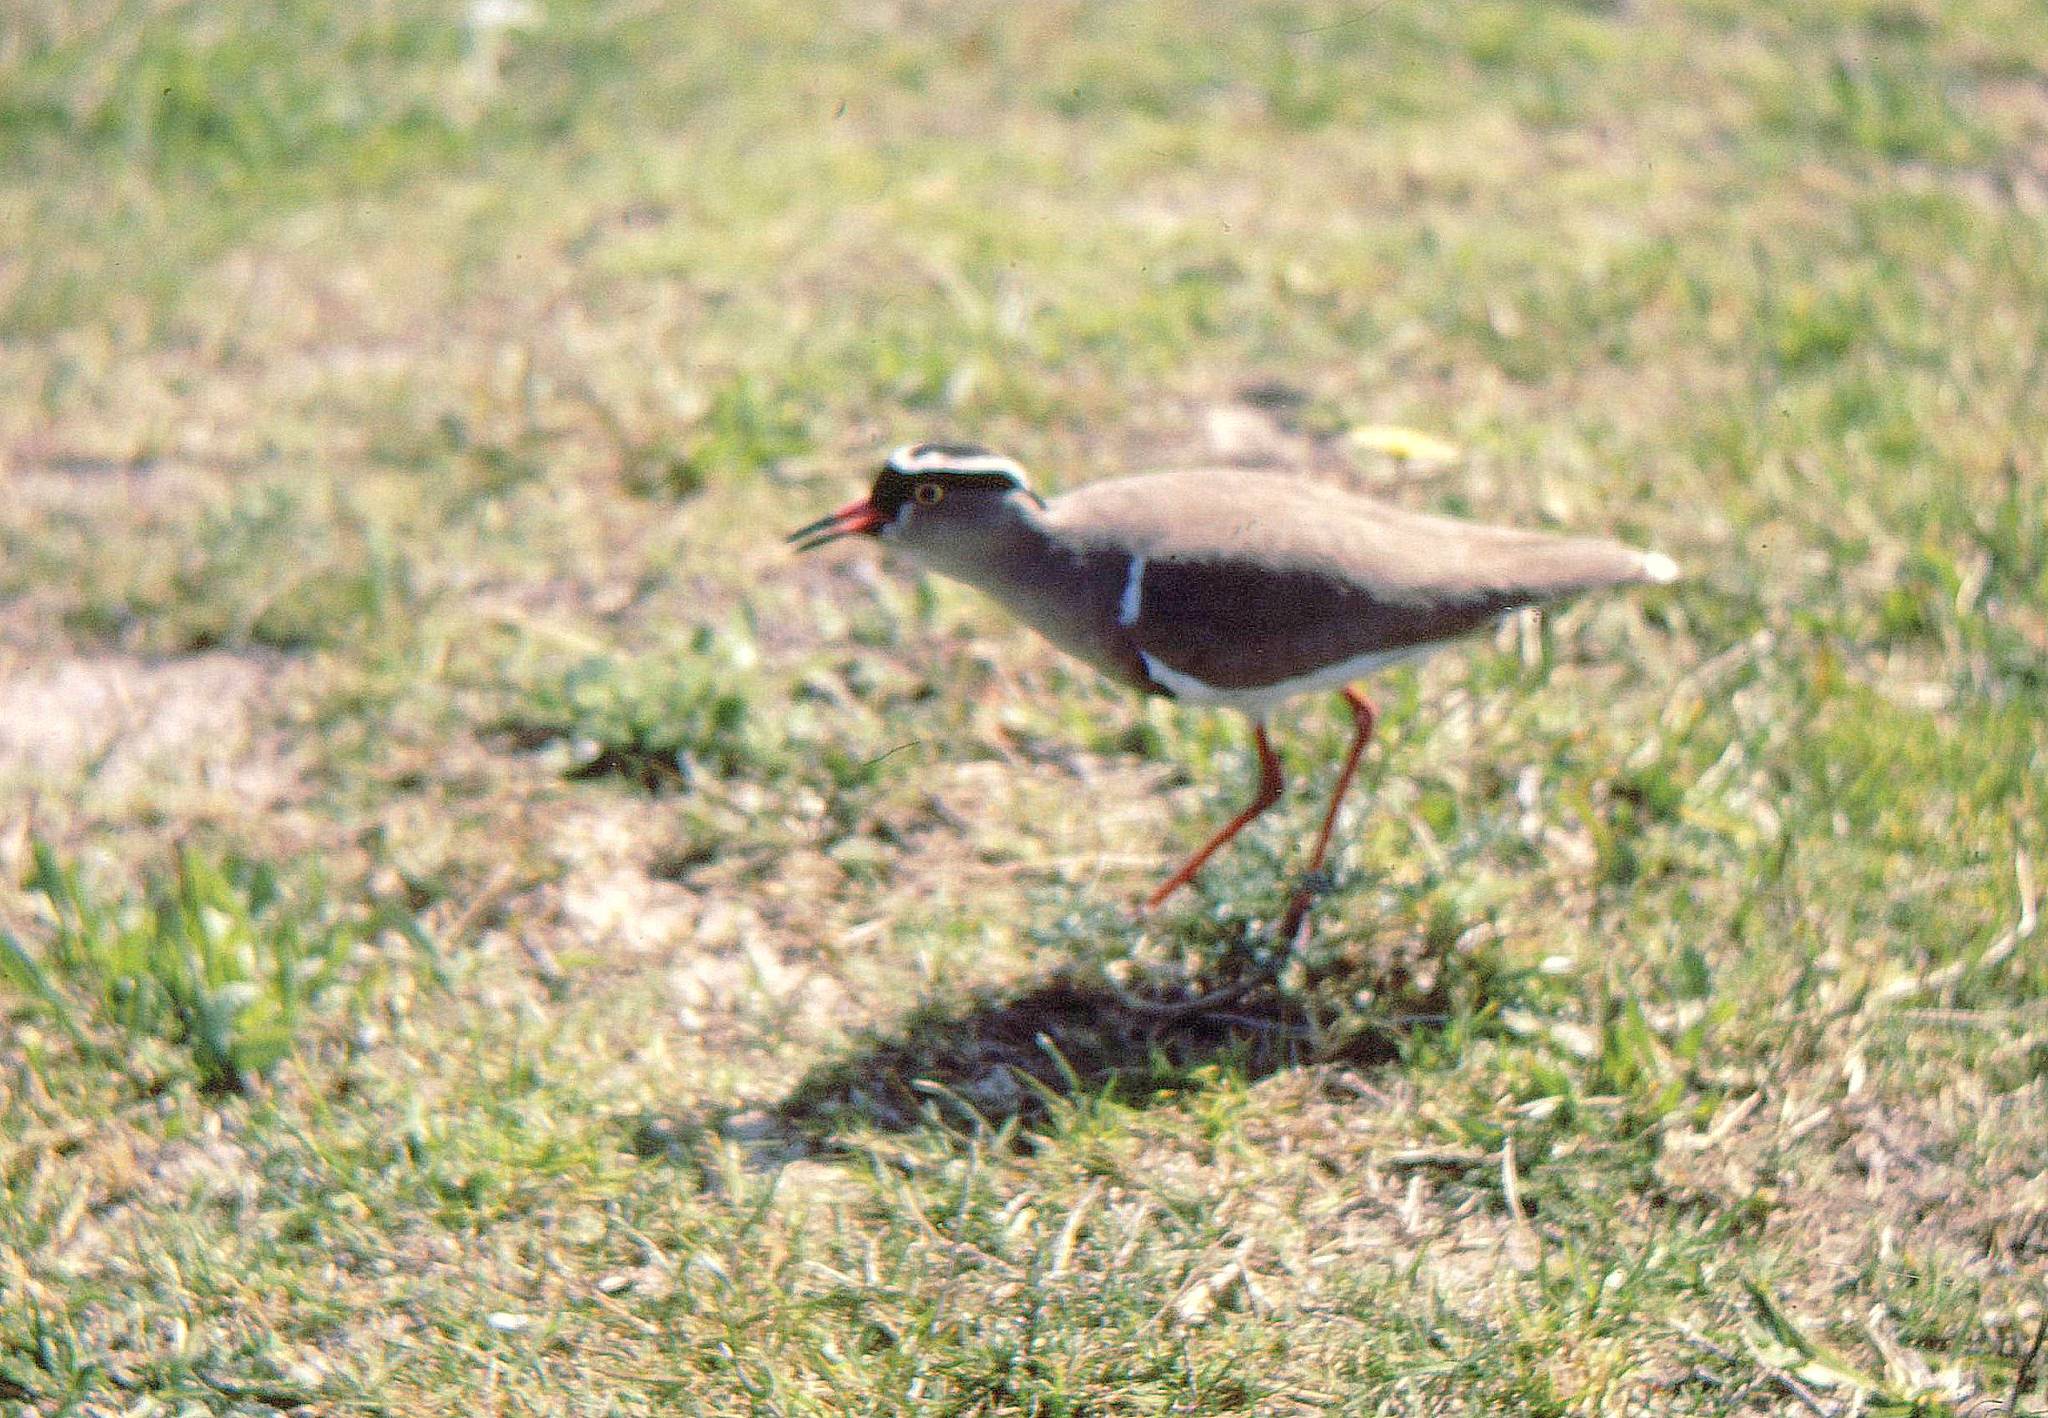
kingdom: Animalia
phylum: Chordata
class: Aves
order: Charadriiformes
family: Charadriidae
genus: Vanellus
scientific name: Vanellus coronatus
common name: Crowned lapwing
